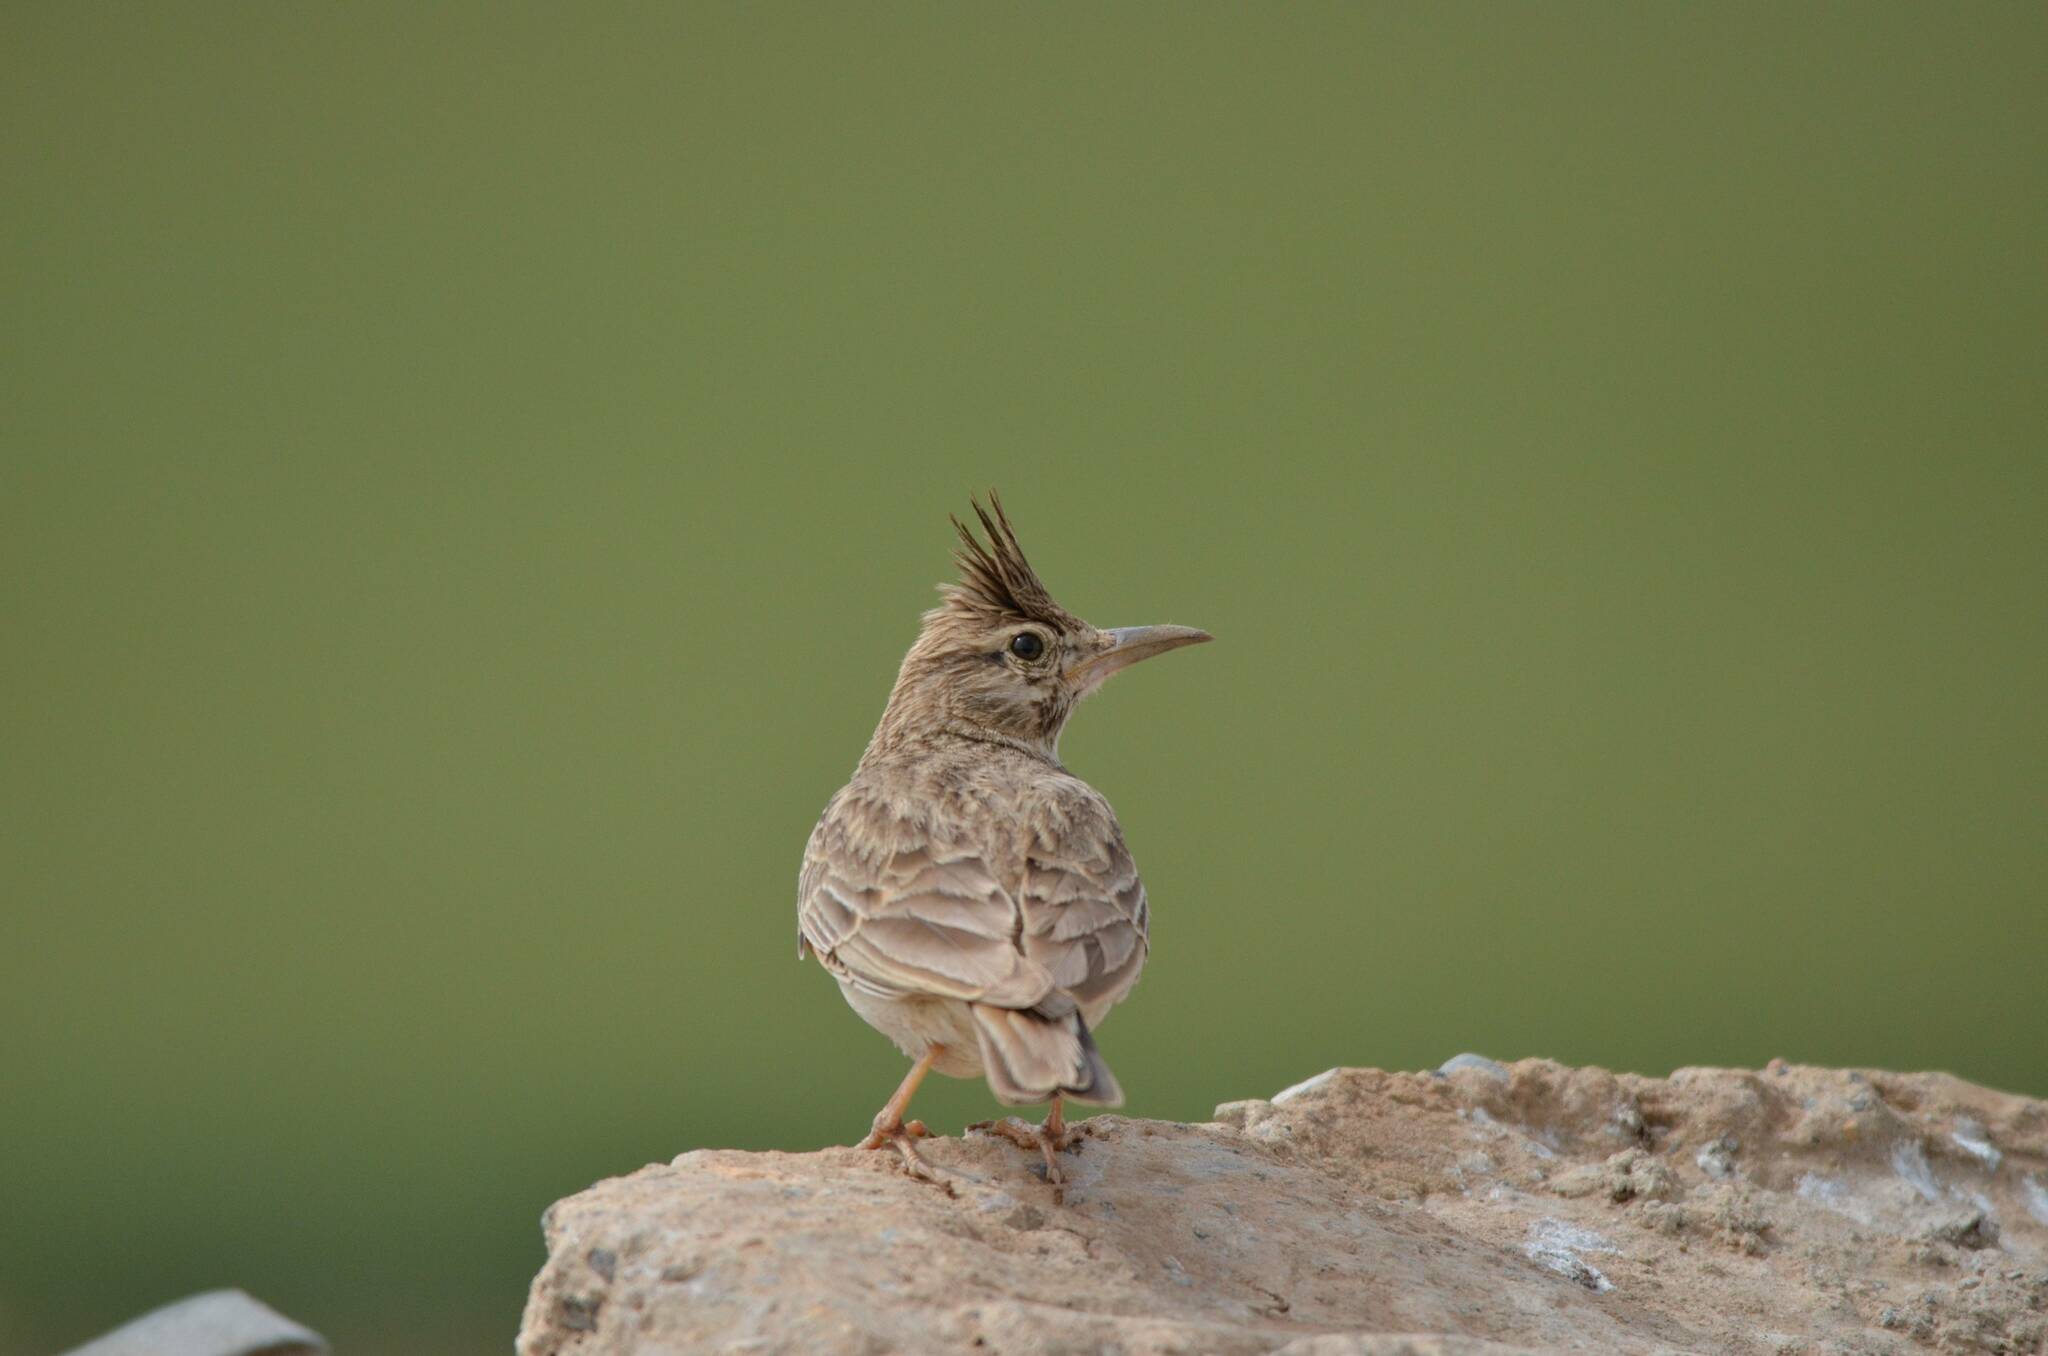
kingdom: Animalia
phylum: Chordata
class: Aves
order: Passeriformes
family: Alaudidae
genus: Galerida
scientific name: Galerida cristata
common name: Crested lark
